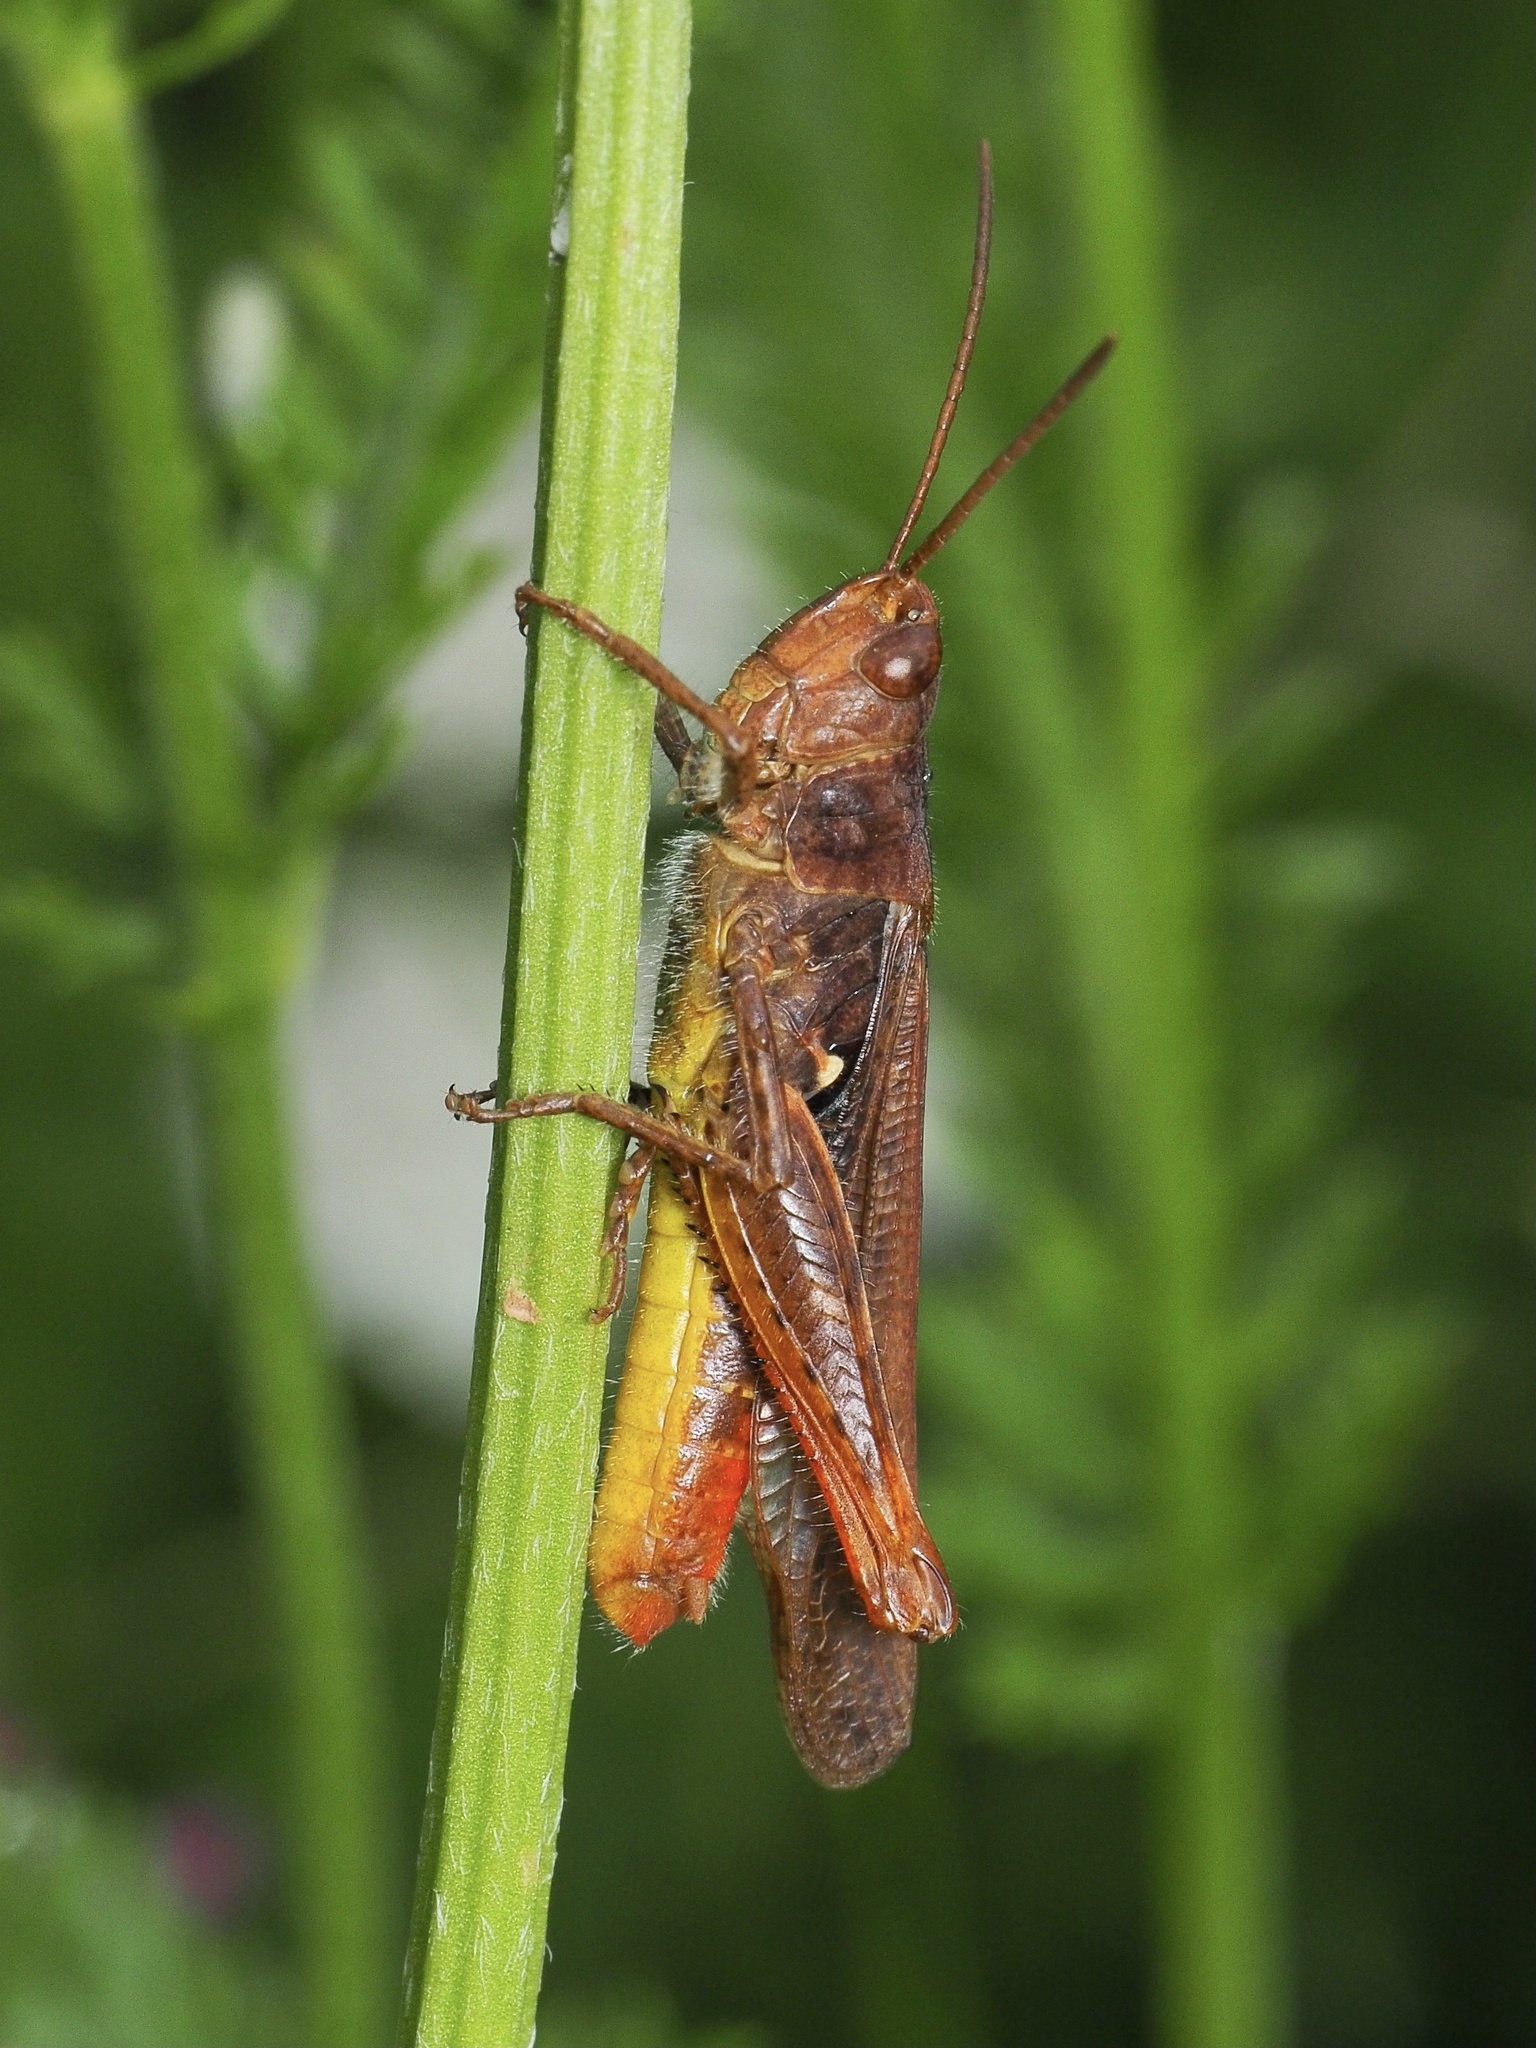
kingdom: Animalia
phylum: Arthropoda
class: Insecta
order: Orthoptera
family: Acrididae
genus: Chorthippus
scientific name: Chorthippus biguttulus
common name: Bow-winged grasshopper
